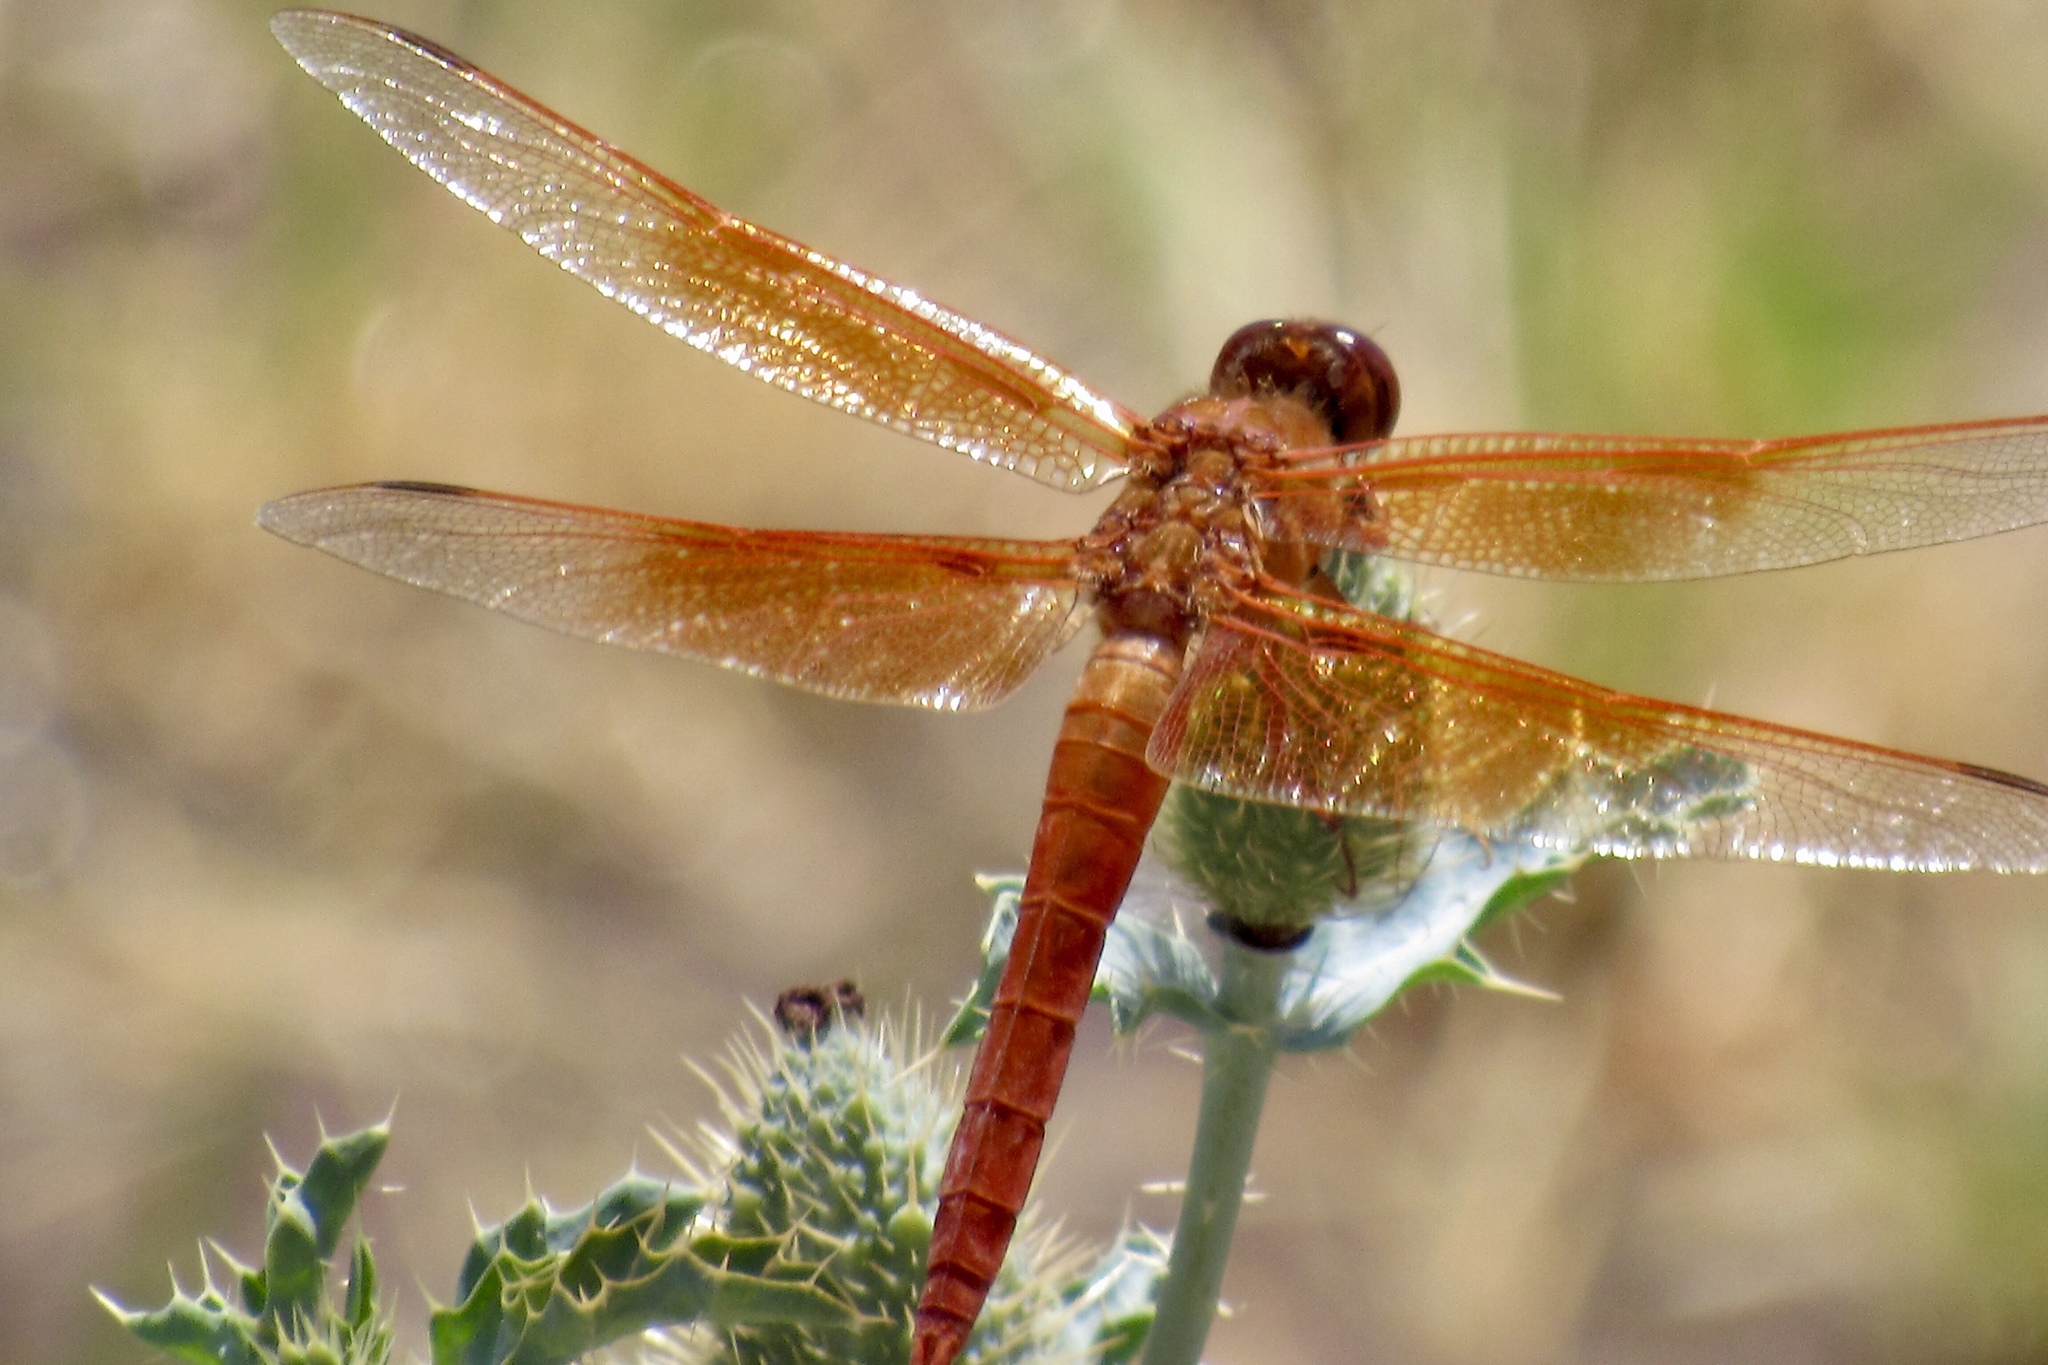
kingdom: Animalia
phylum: Arthropoda
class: Insecta
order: Odonata
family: Libellulidae
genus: Libellula
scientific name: Libellula saturata
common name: Flame skimmer
